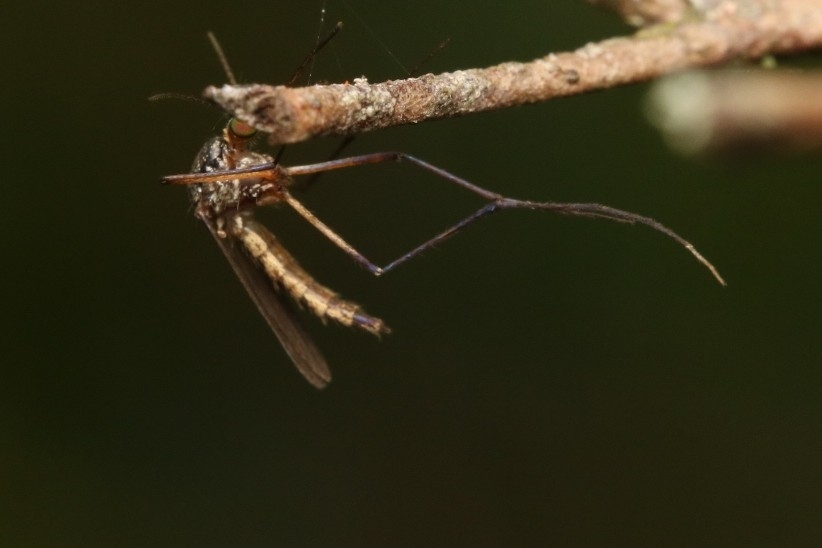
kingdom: Animalia
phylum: Arthropoda
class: Insecta
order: Diptera
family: Culicidae
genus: Psorophora
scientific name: Psorophora ferox
